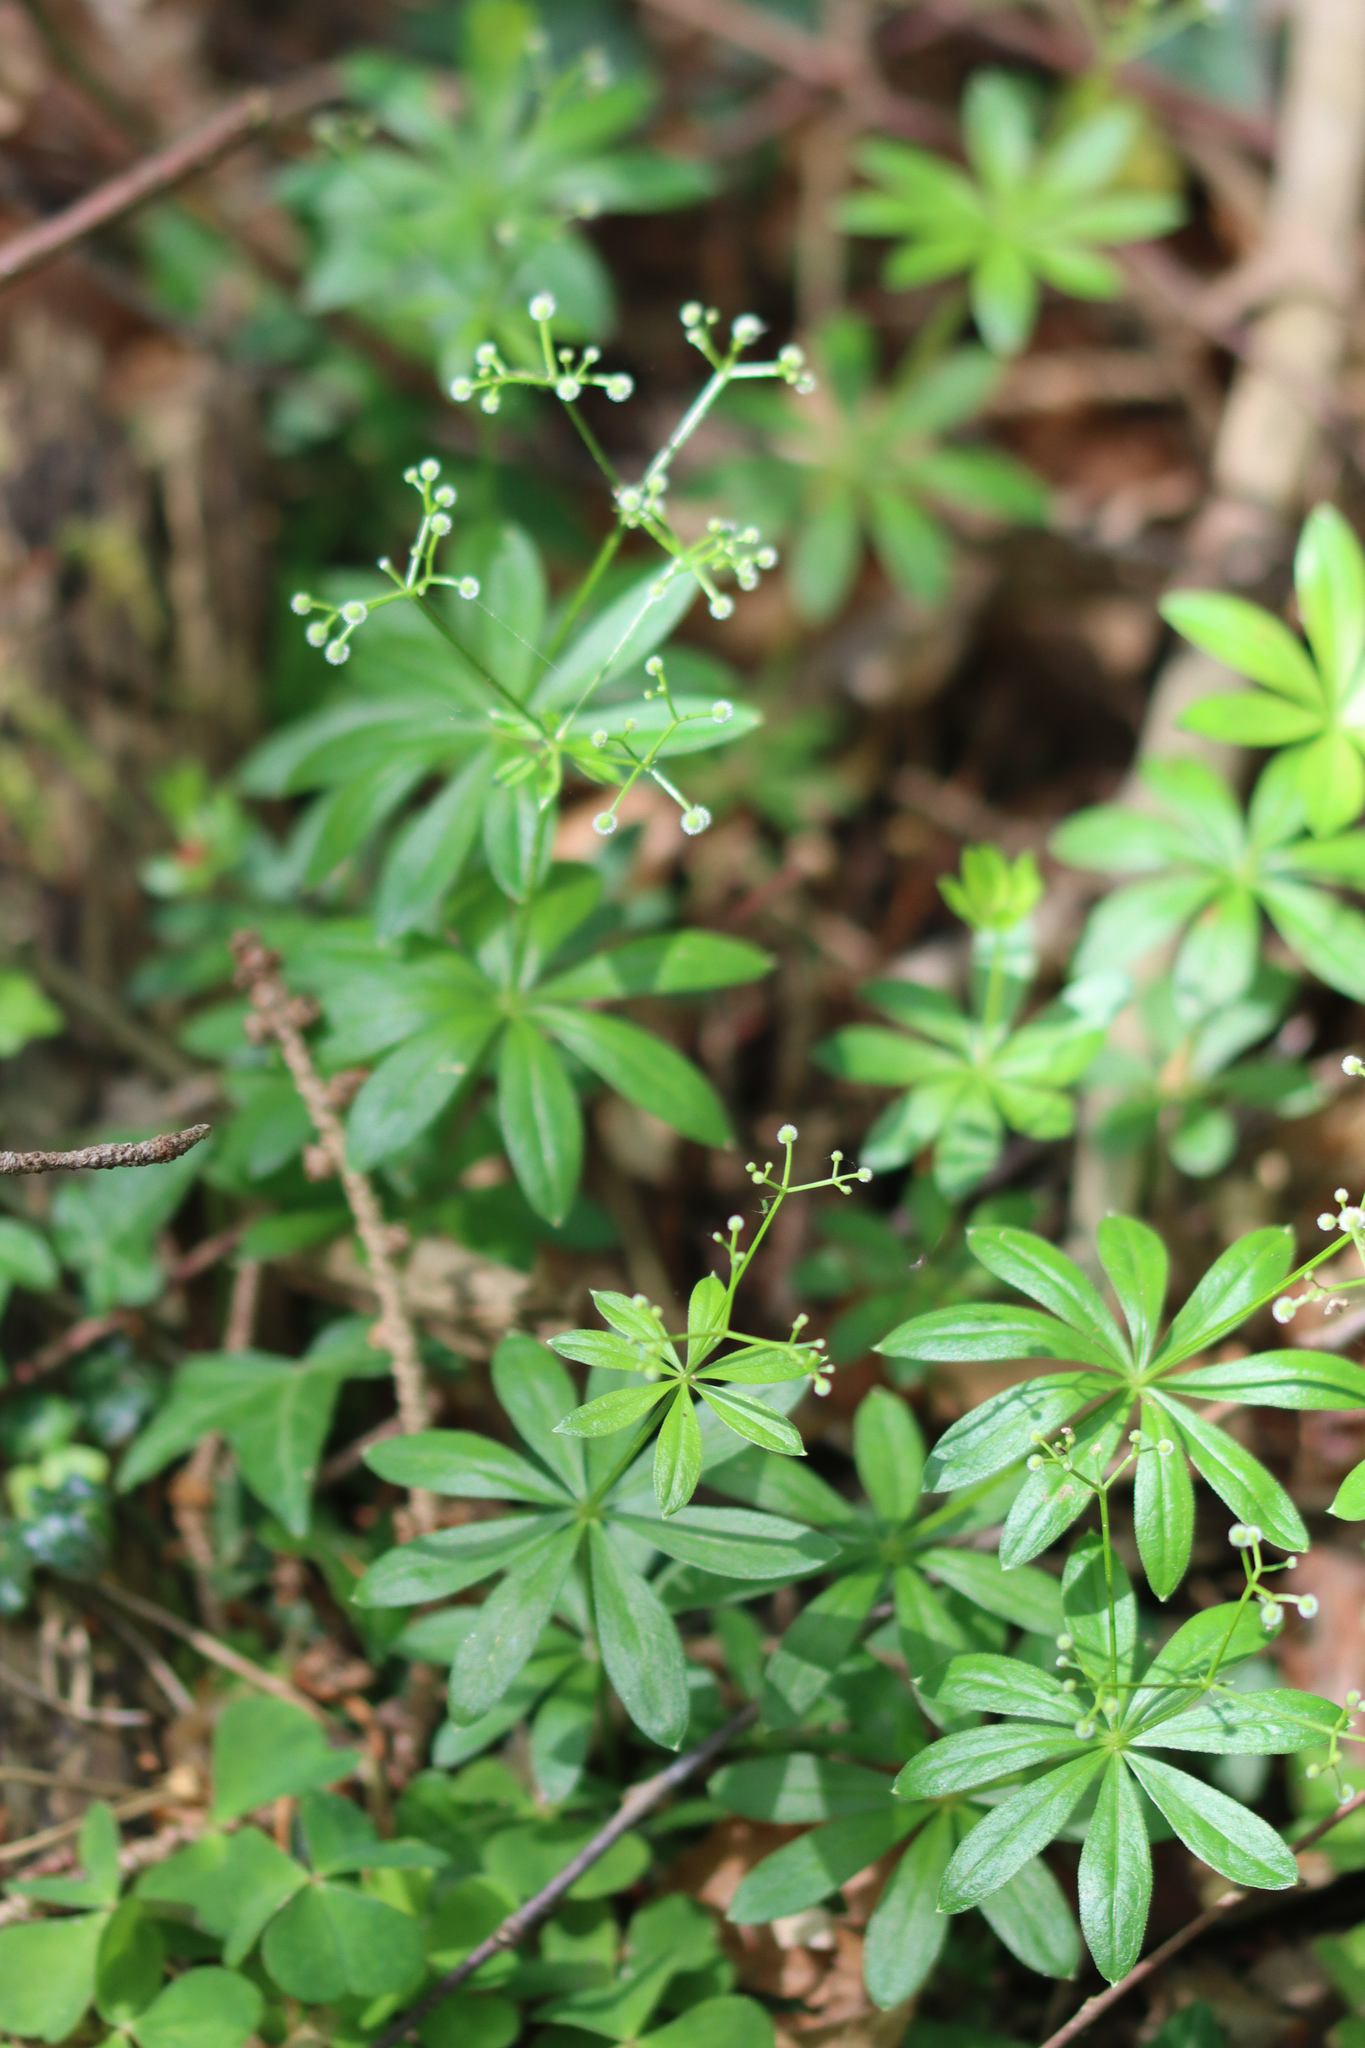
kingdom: Plantae
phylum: Tracheophyta
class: Magnoliopsida
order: Gentianales
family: Rubiaceae
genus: Galium
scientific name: Galium odoratum
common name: Sweet woodruff
